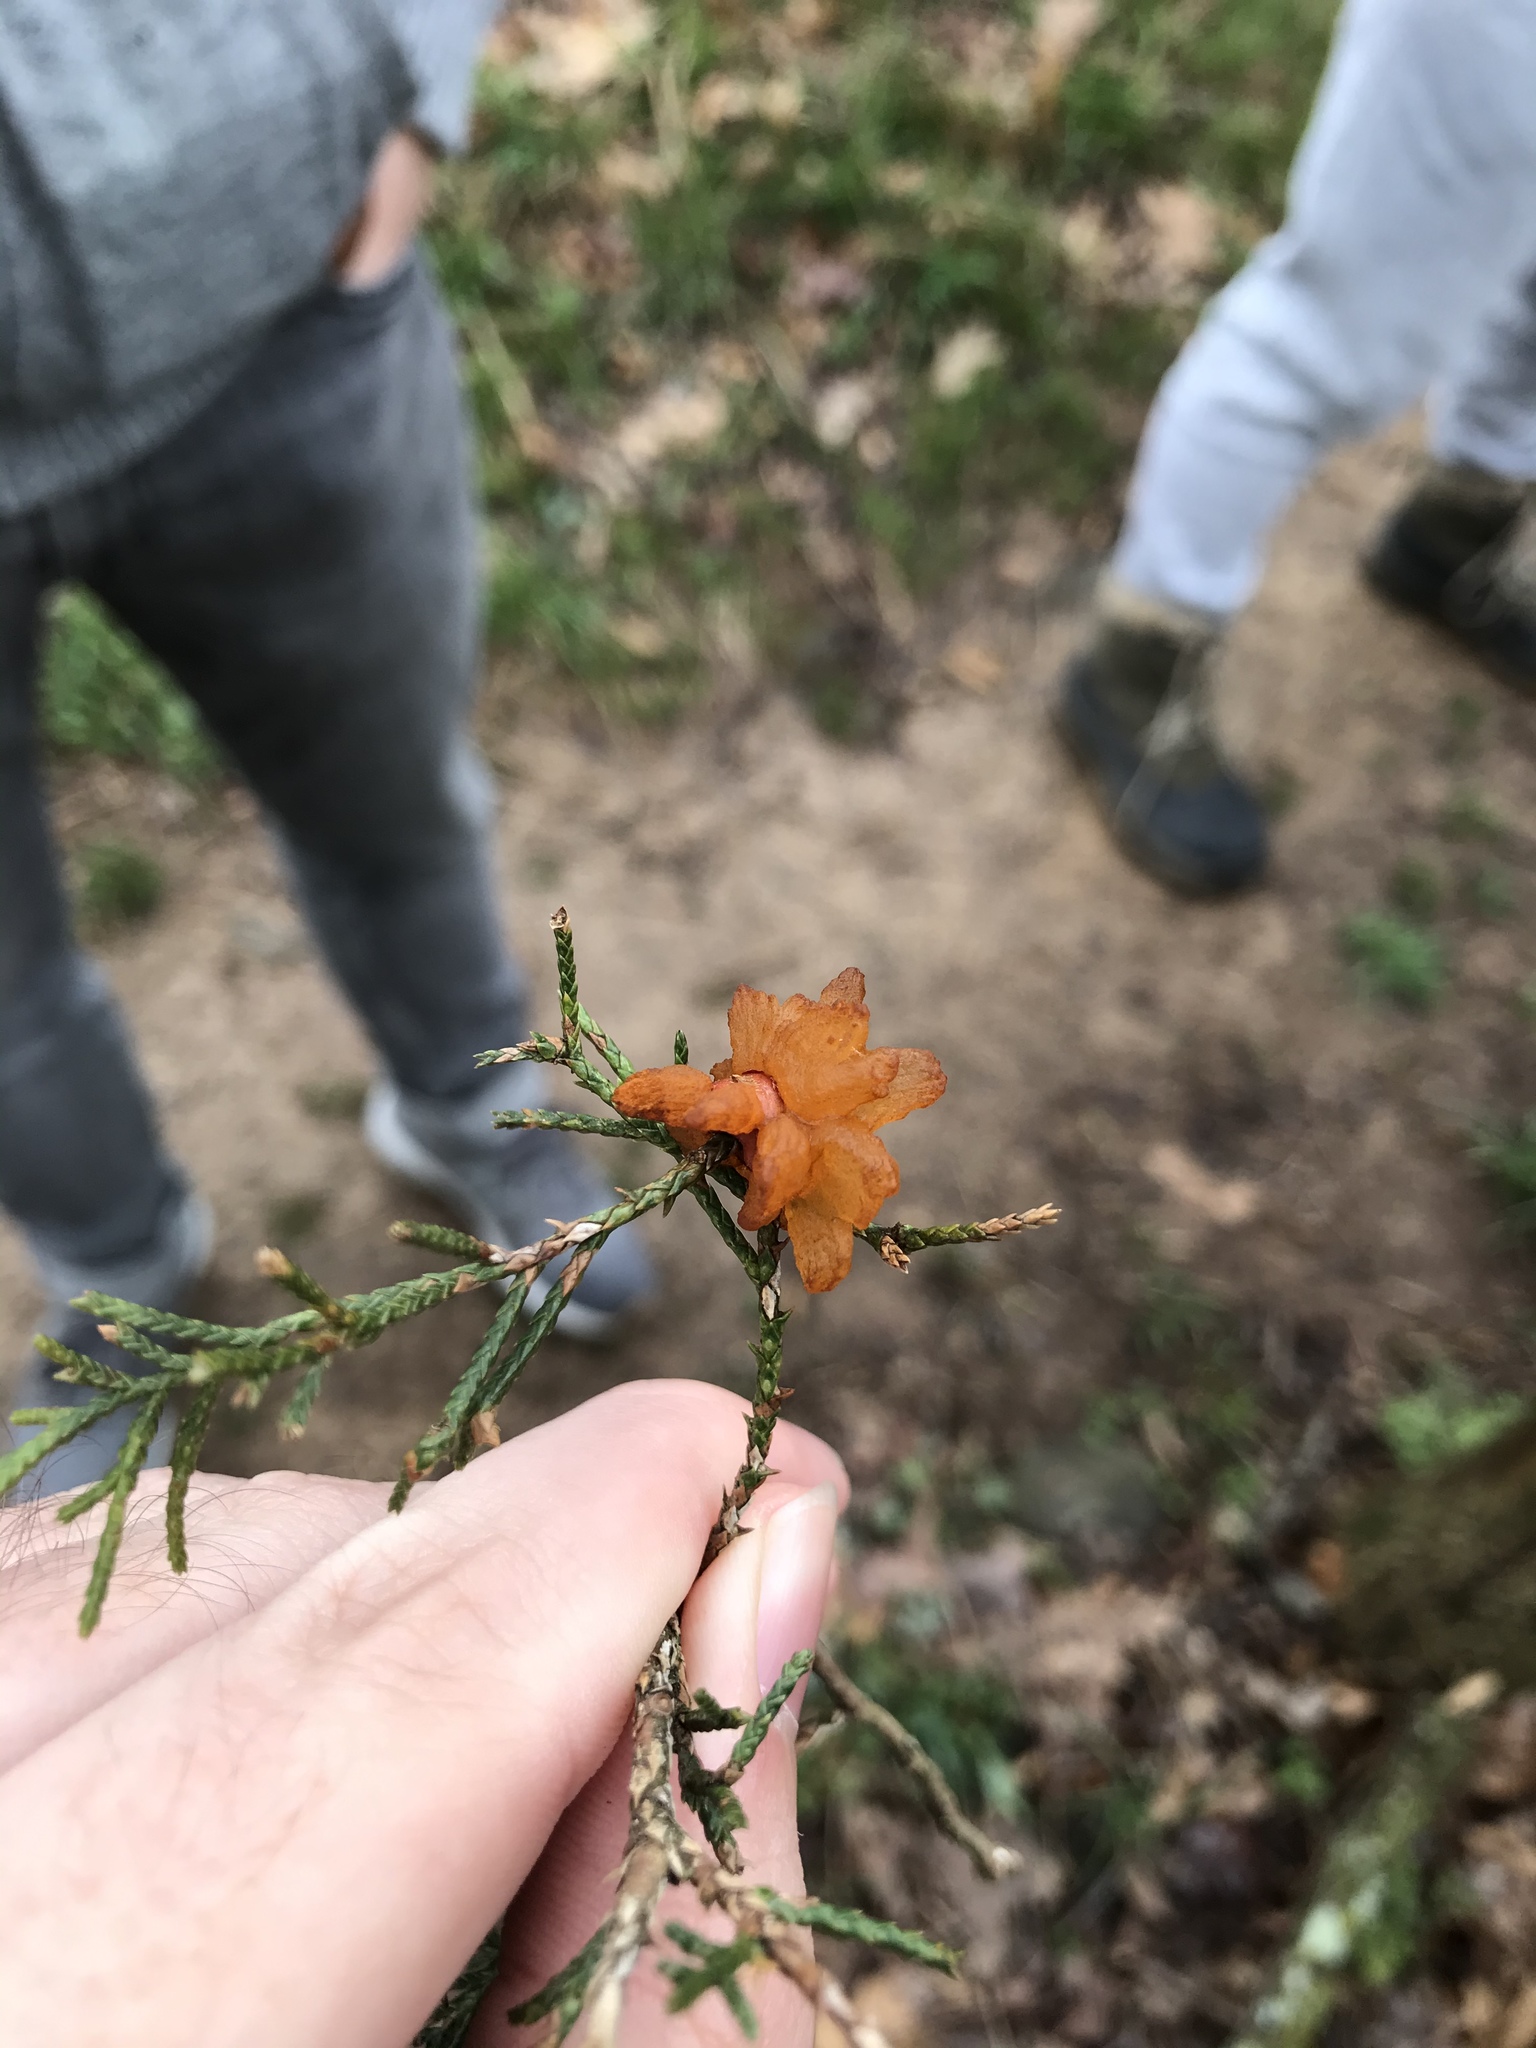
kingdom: Fungi
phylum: Basidiomycota
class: Pucciniomycetes
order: Pucciniales
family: Gymnosporangiaceae
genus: Gymnosporangium
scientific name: Gymnosporangium globosum
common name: Juniper-hawthorn rust
